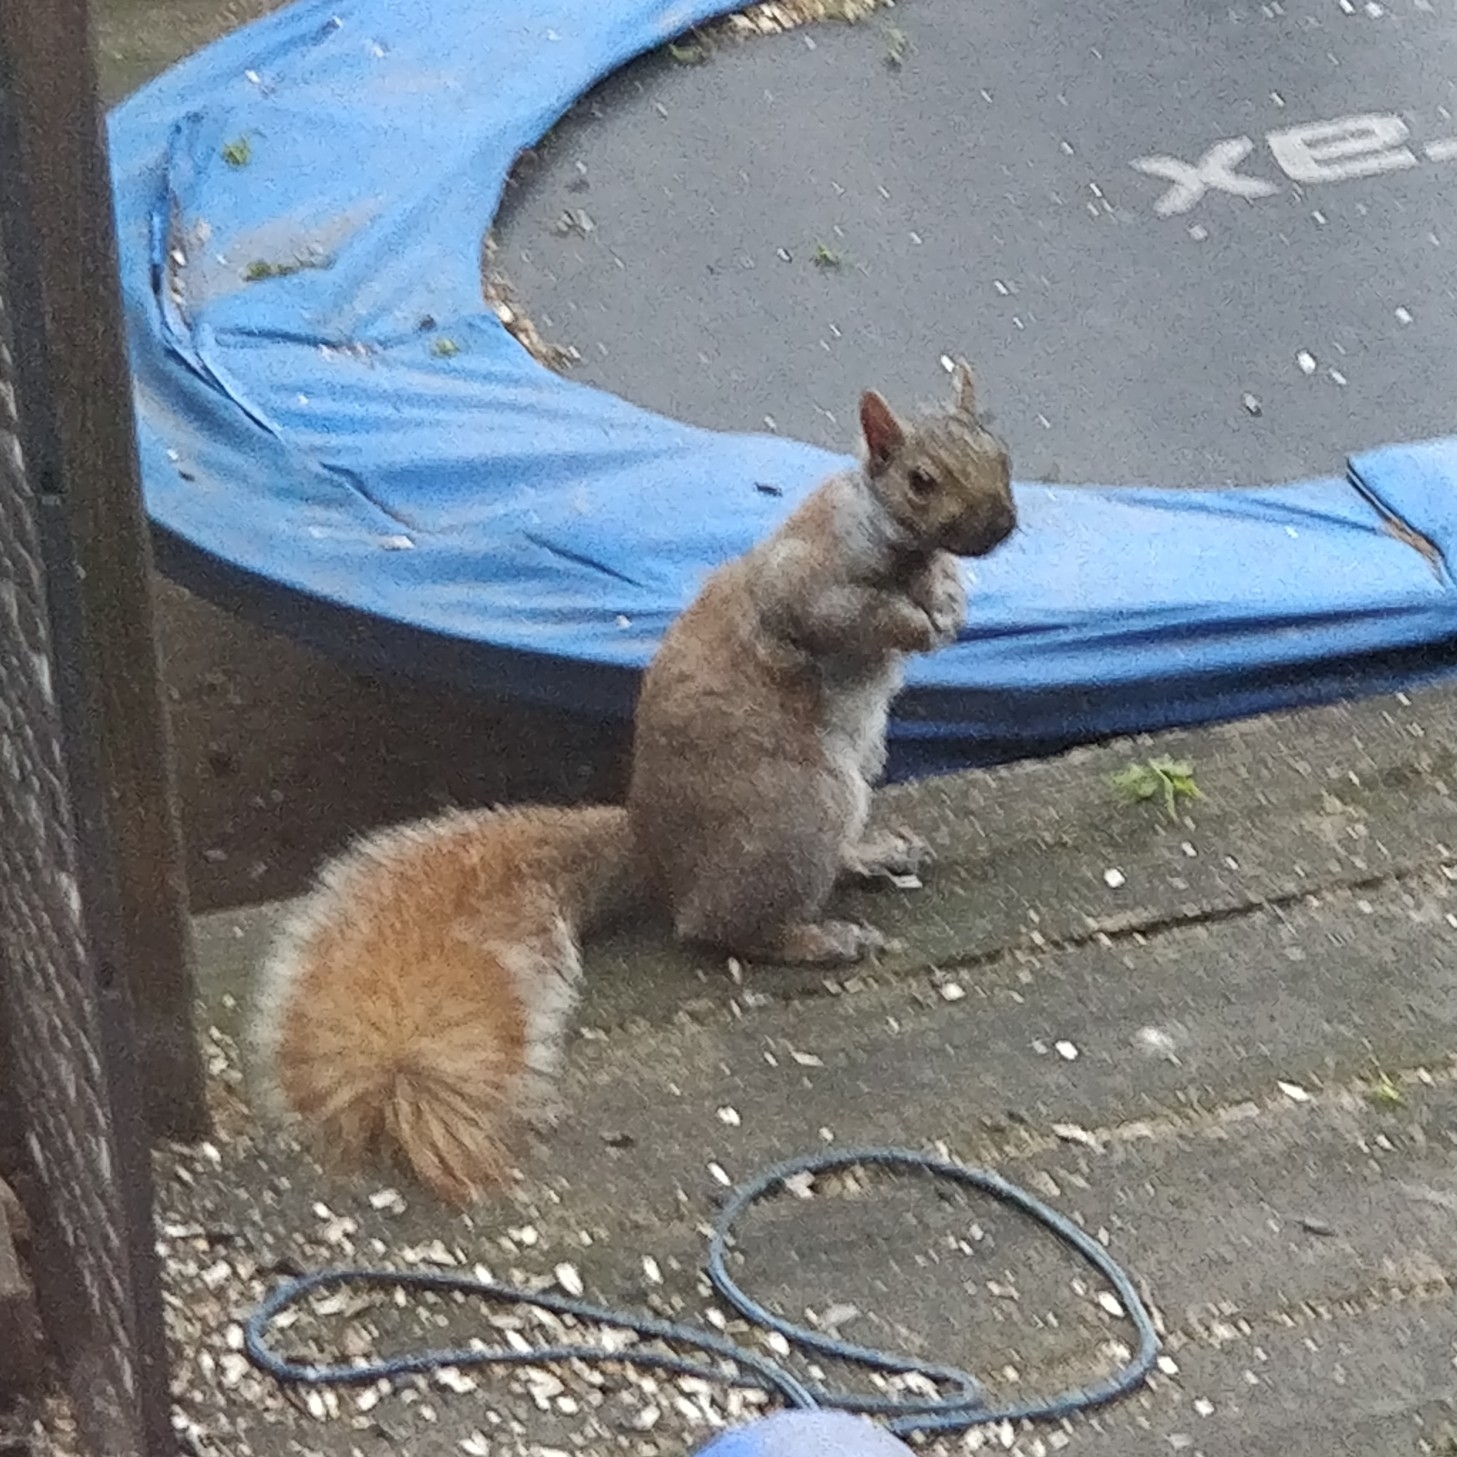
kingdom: Animalia
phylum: Chordata
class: Mammalia
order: Rodentia
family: Sciuridae
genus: Sciurus
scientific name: Sciurus carolinensis
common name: Eastern gray squirrel
